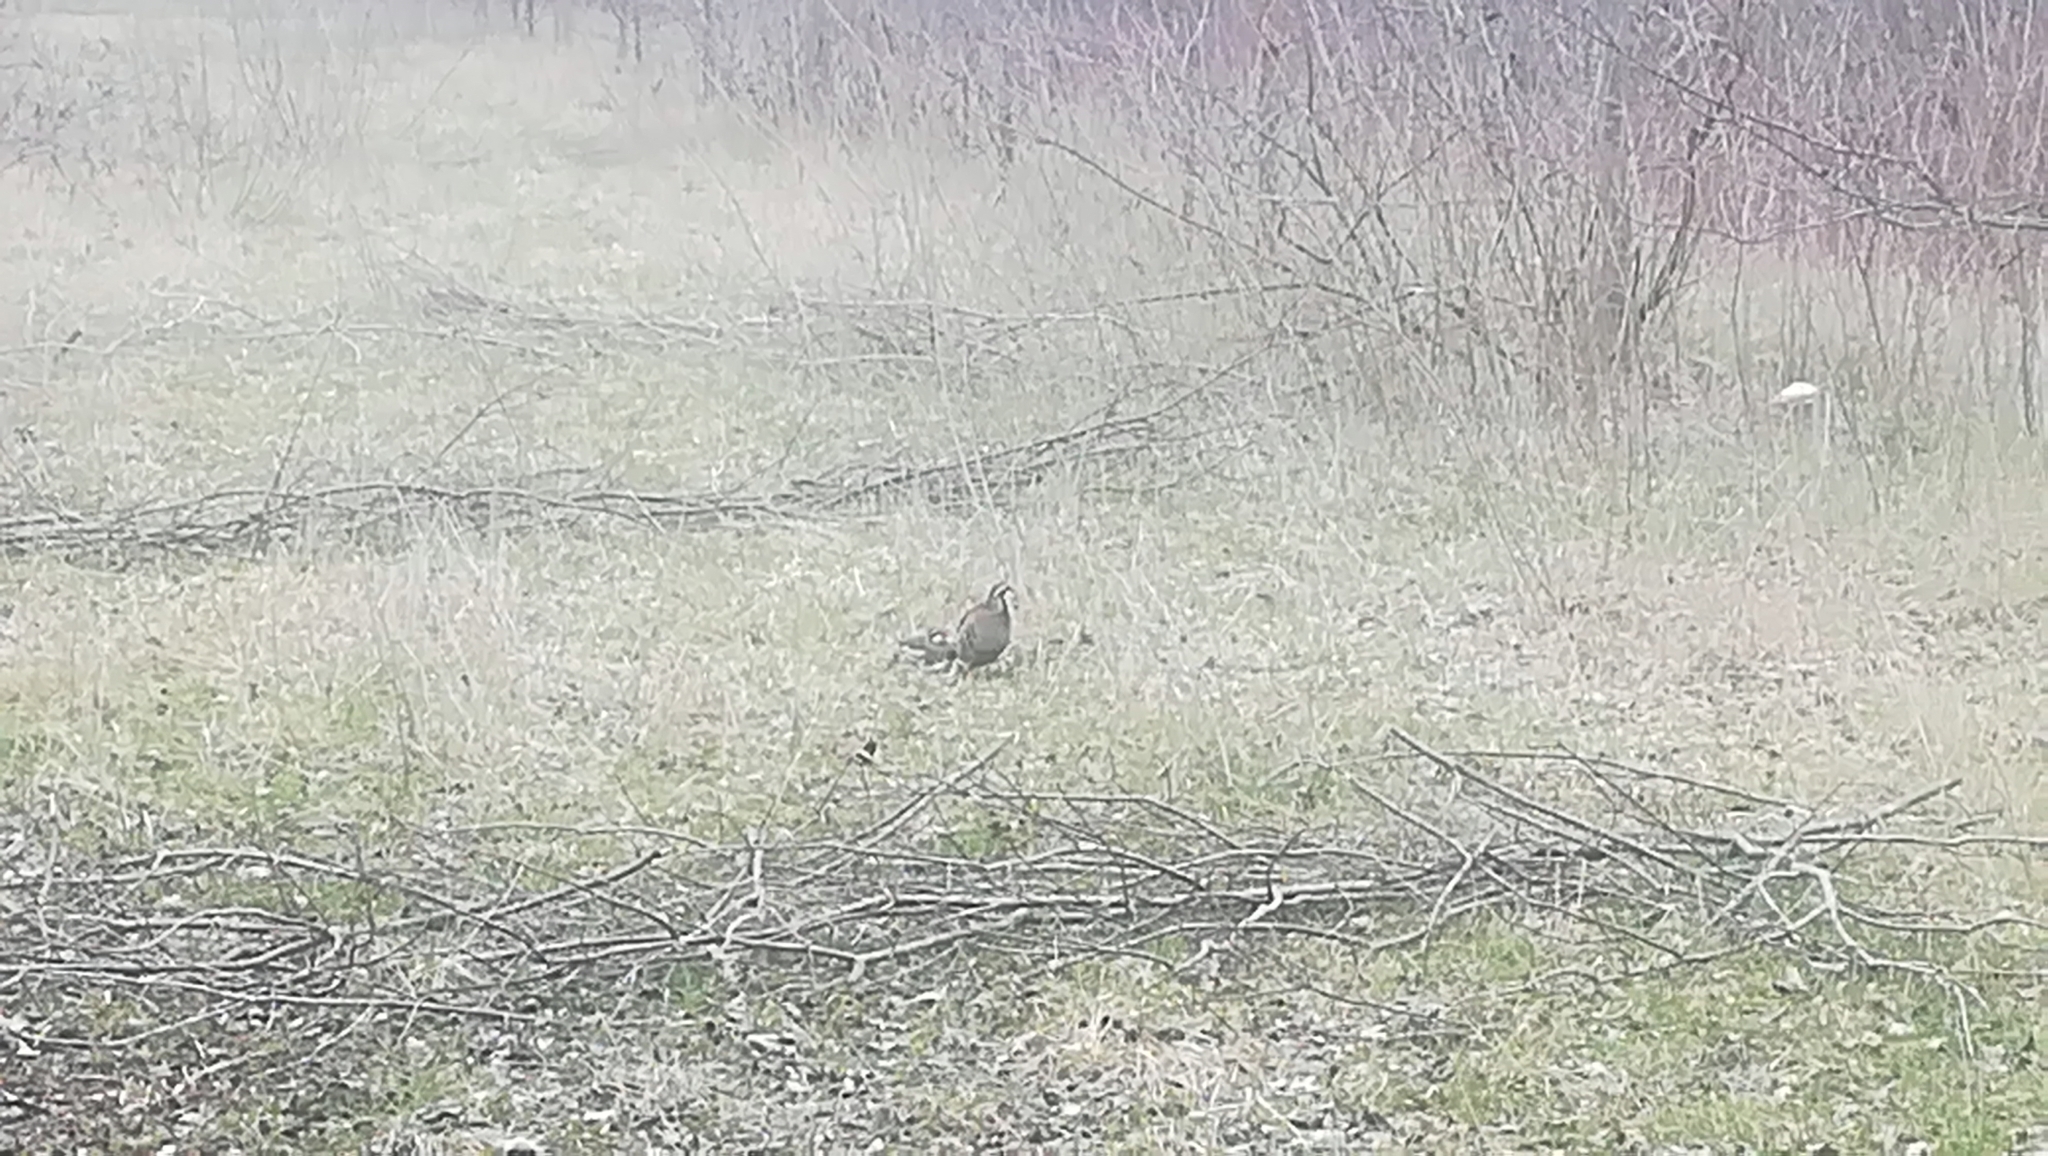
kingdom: Animalia
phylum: Chordata
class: Aves
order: Galliformes
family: Phasianidae
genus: Alectoris
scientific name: Alectoris rufa
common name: Red-legged partridge
